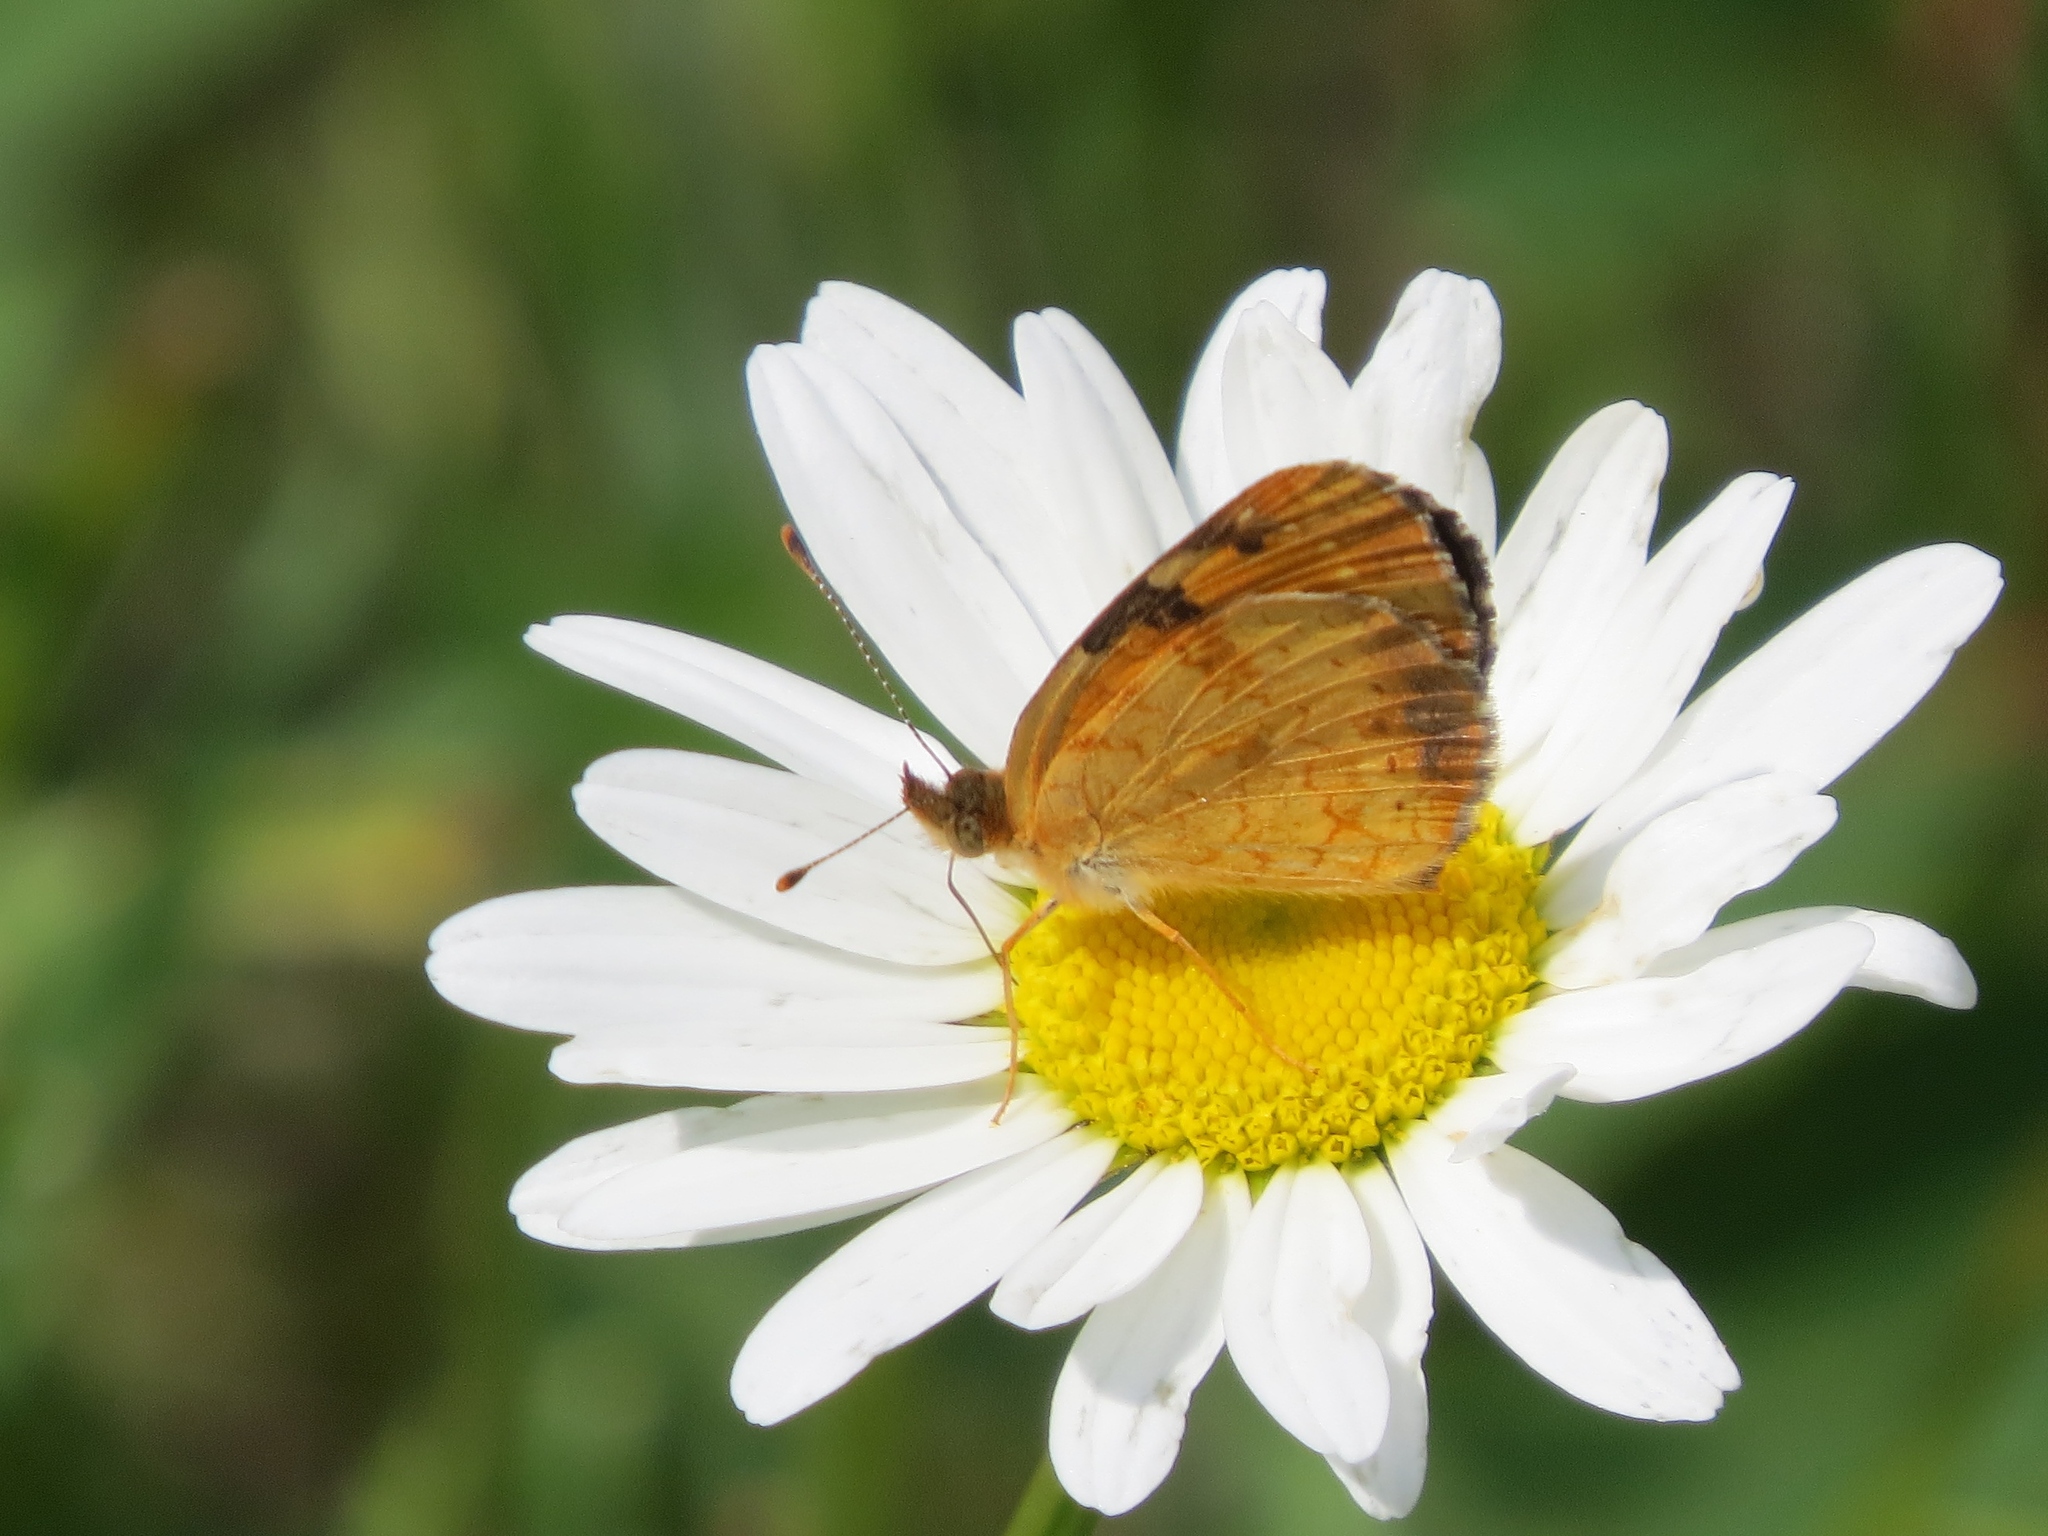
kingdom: Animalia
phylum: Arthropoda
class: Insecta
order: Lepidoptera
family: Nymphalidae
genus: Phyciodes
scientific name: Phyciodes tharos
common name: Pearl crescent
